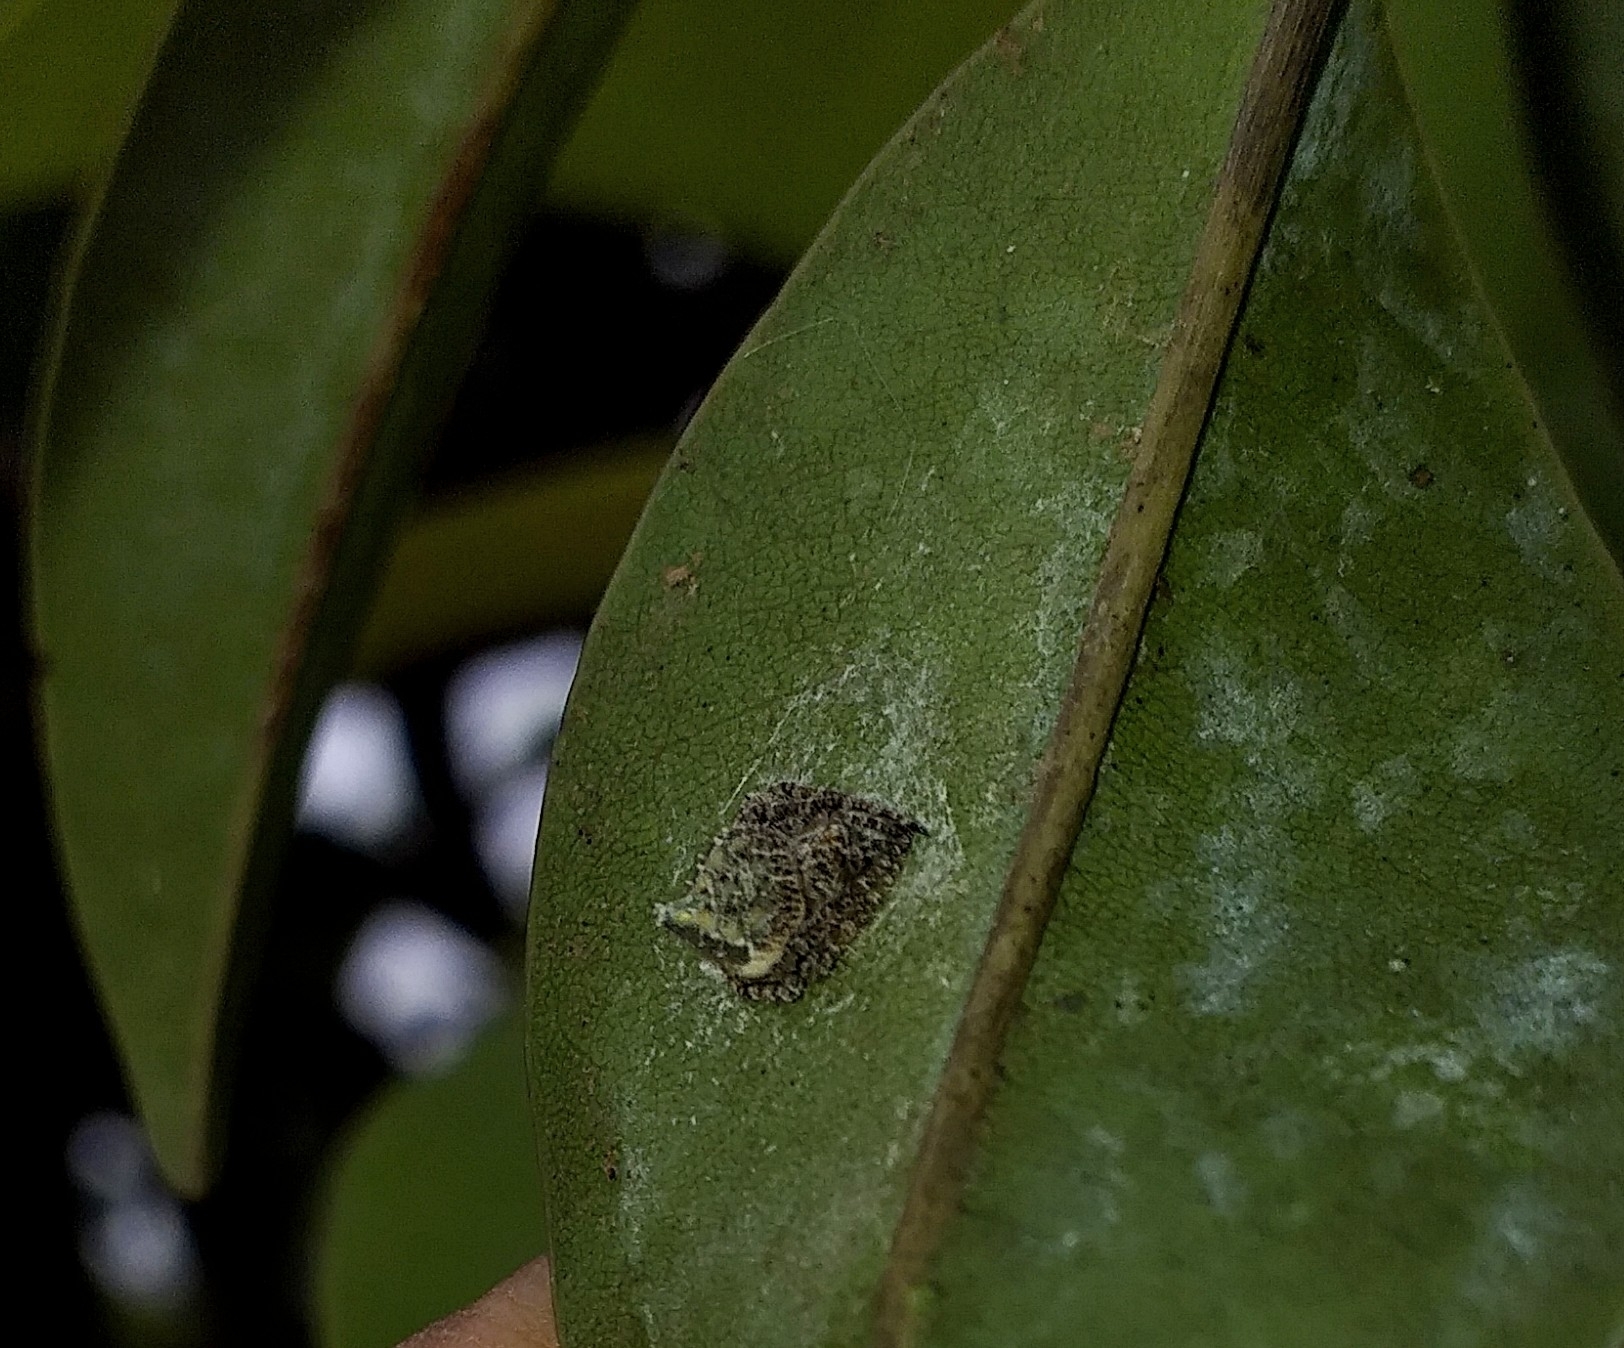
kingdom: Animalia
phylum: Arthropoda
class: Arachnida
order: Araneae
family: Araneidae
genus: Eriovixia
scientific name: Eriovixia laglaizei
